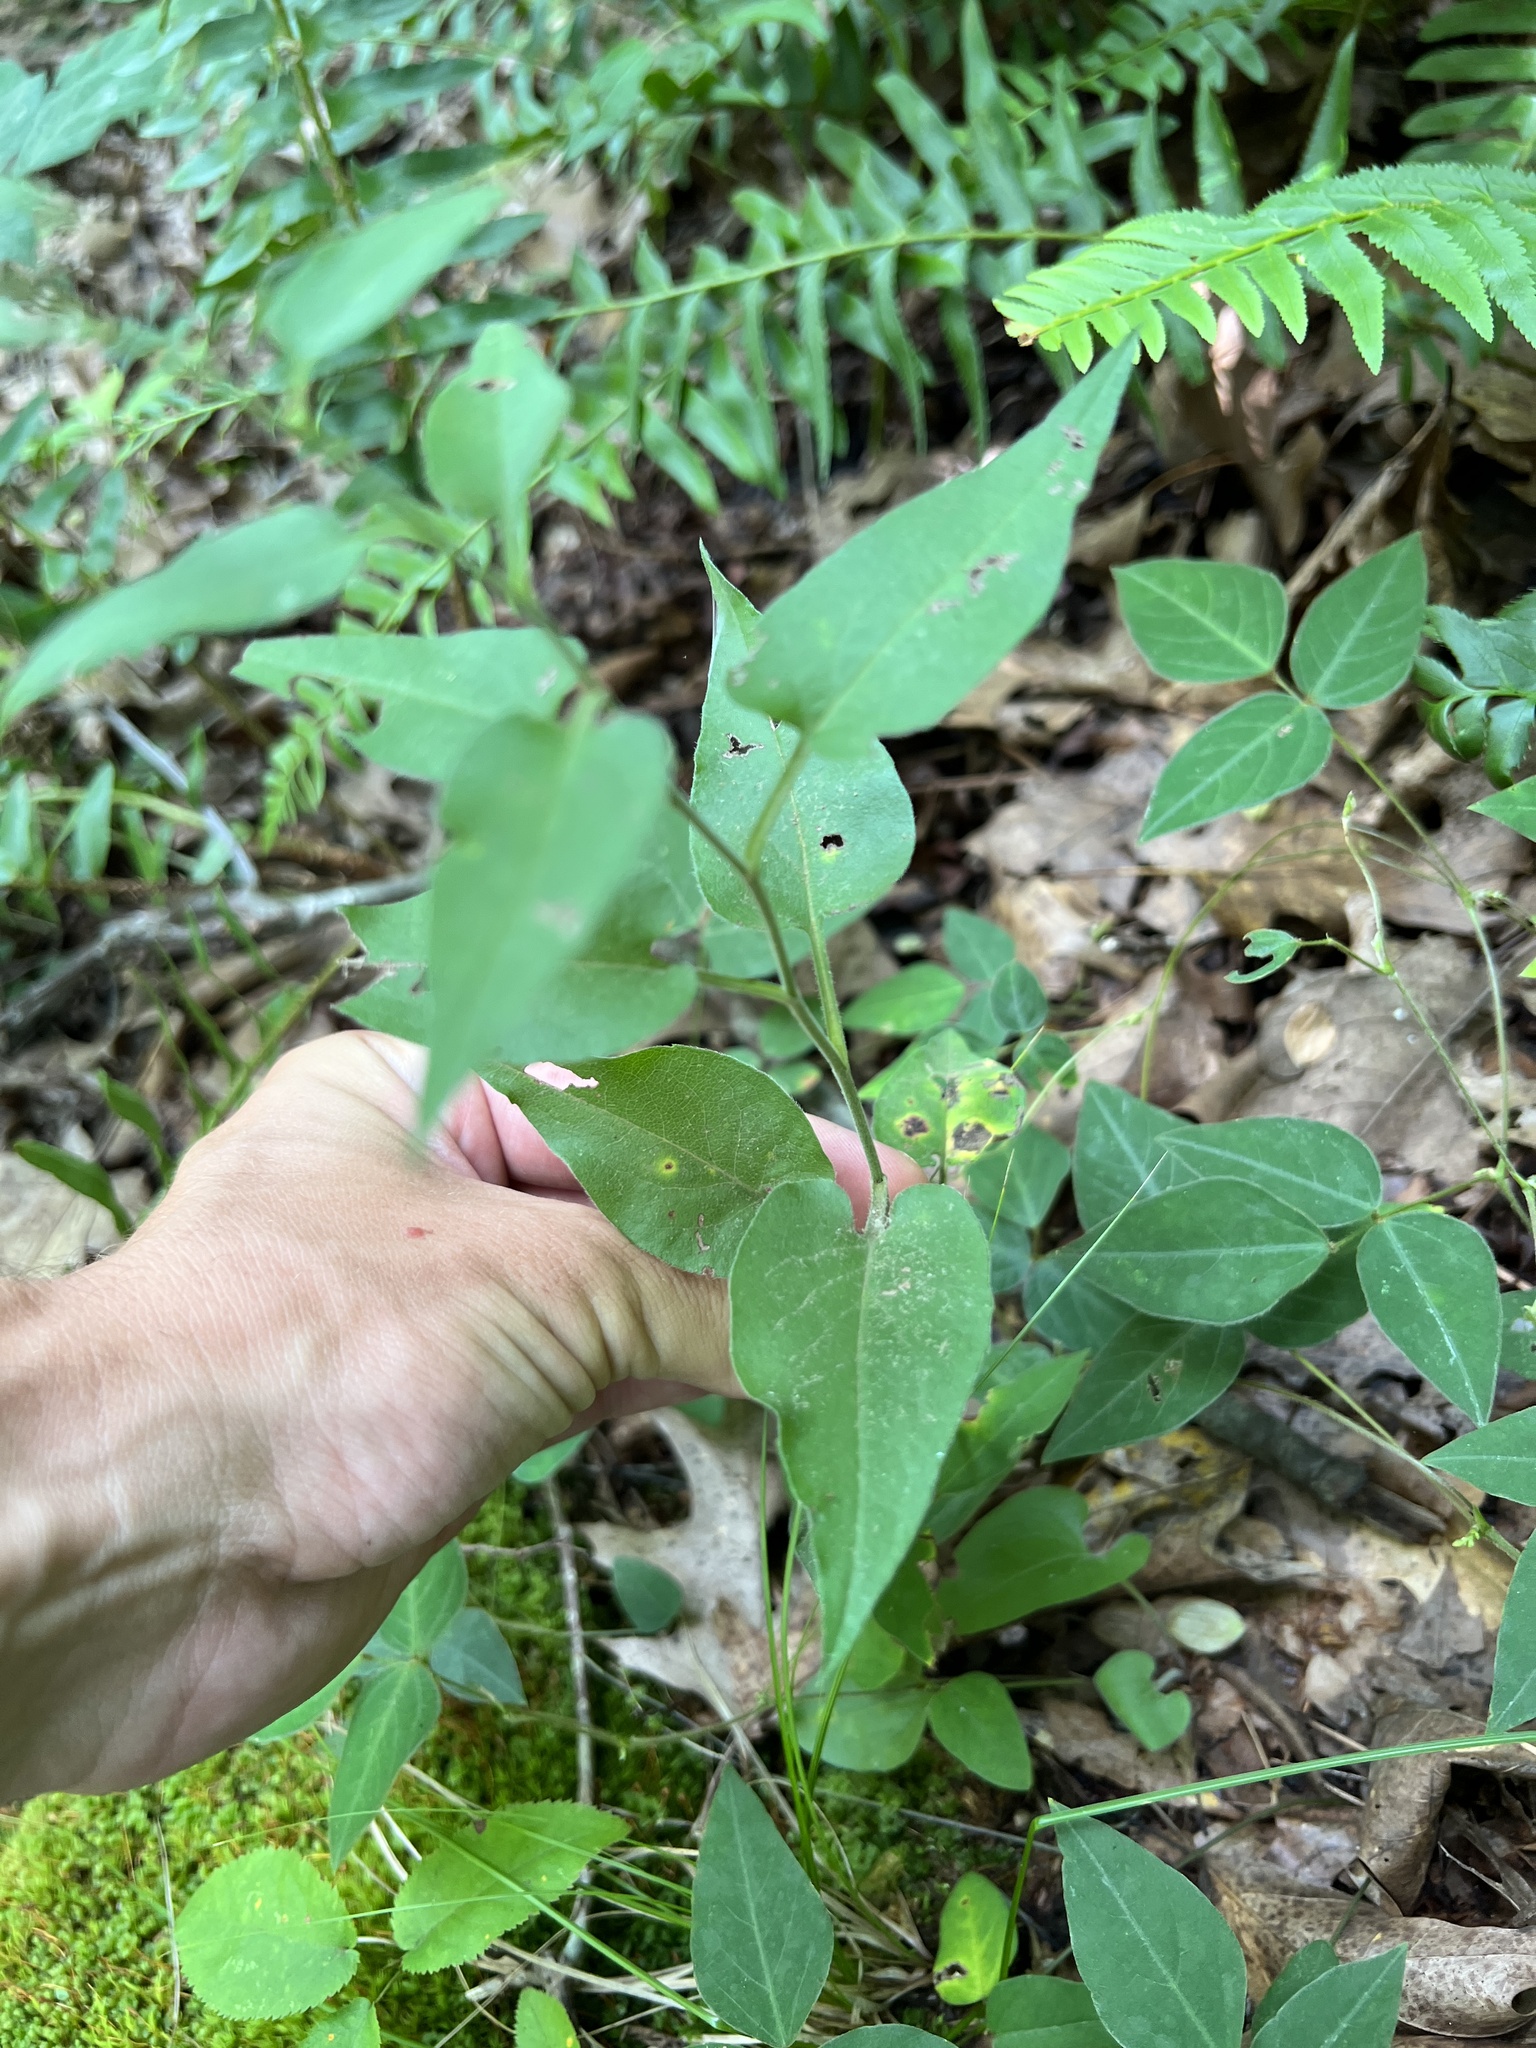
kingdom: Plantae
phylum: Tracheophyta
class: Magnoliopsida
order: Asterales
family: Asteraceae
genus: Symphyotrichum
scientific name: Symphyotrichum anomalum
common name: Many-ray aster
